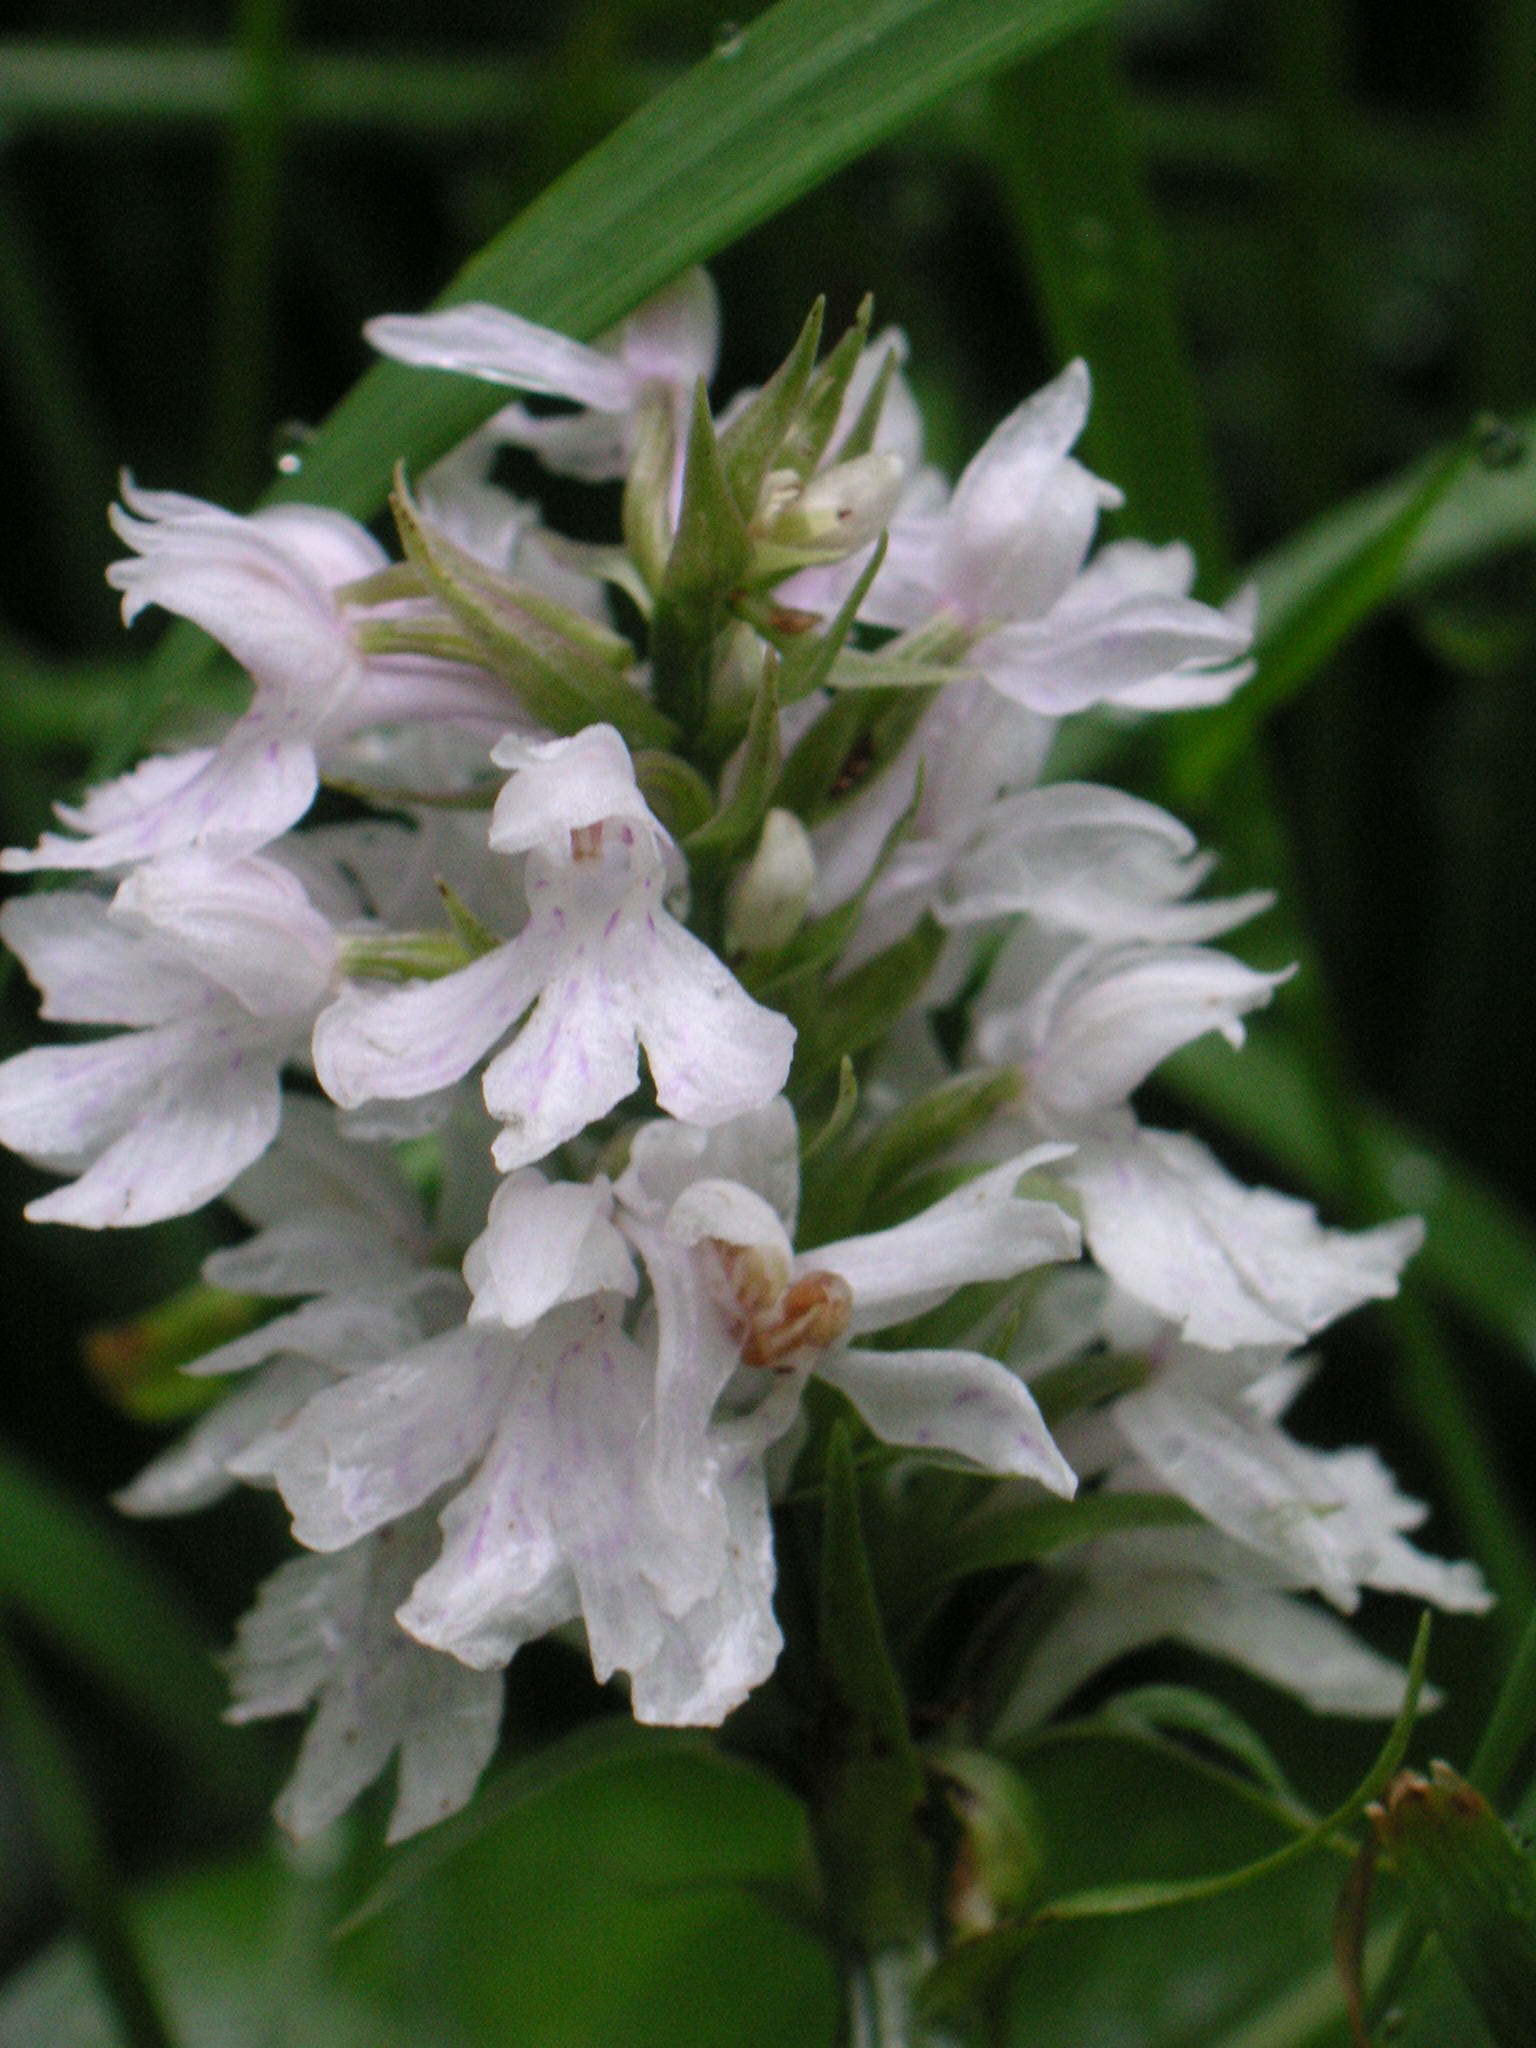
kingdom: Plantae
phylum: Tracheophyta
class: Liliopsida
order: Asparagales
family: Orchidaceae
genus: Dactylorhiza
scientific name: Dactylorhiza maculata
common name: Heath spotted-orchid
